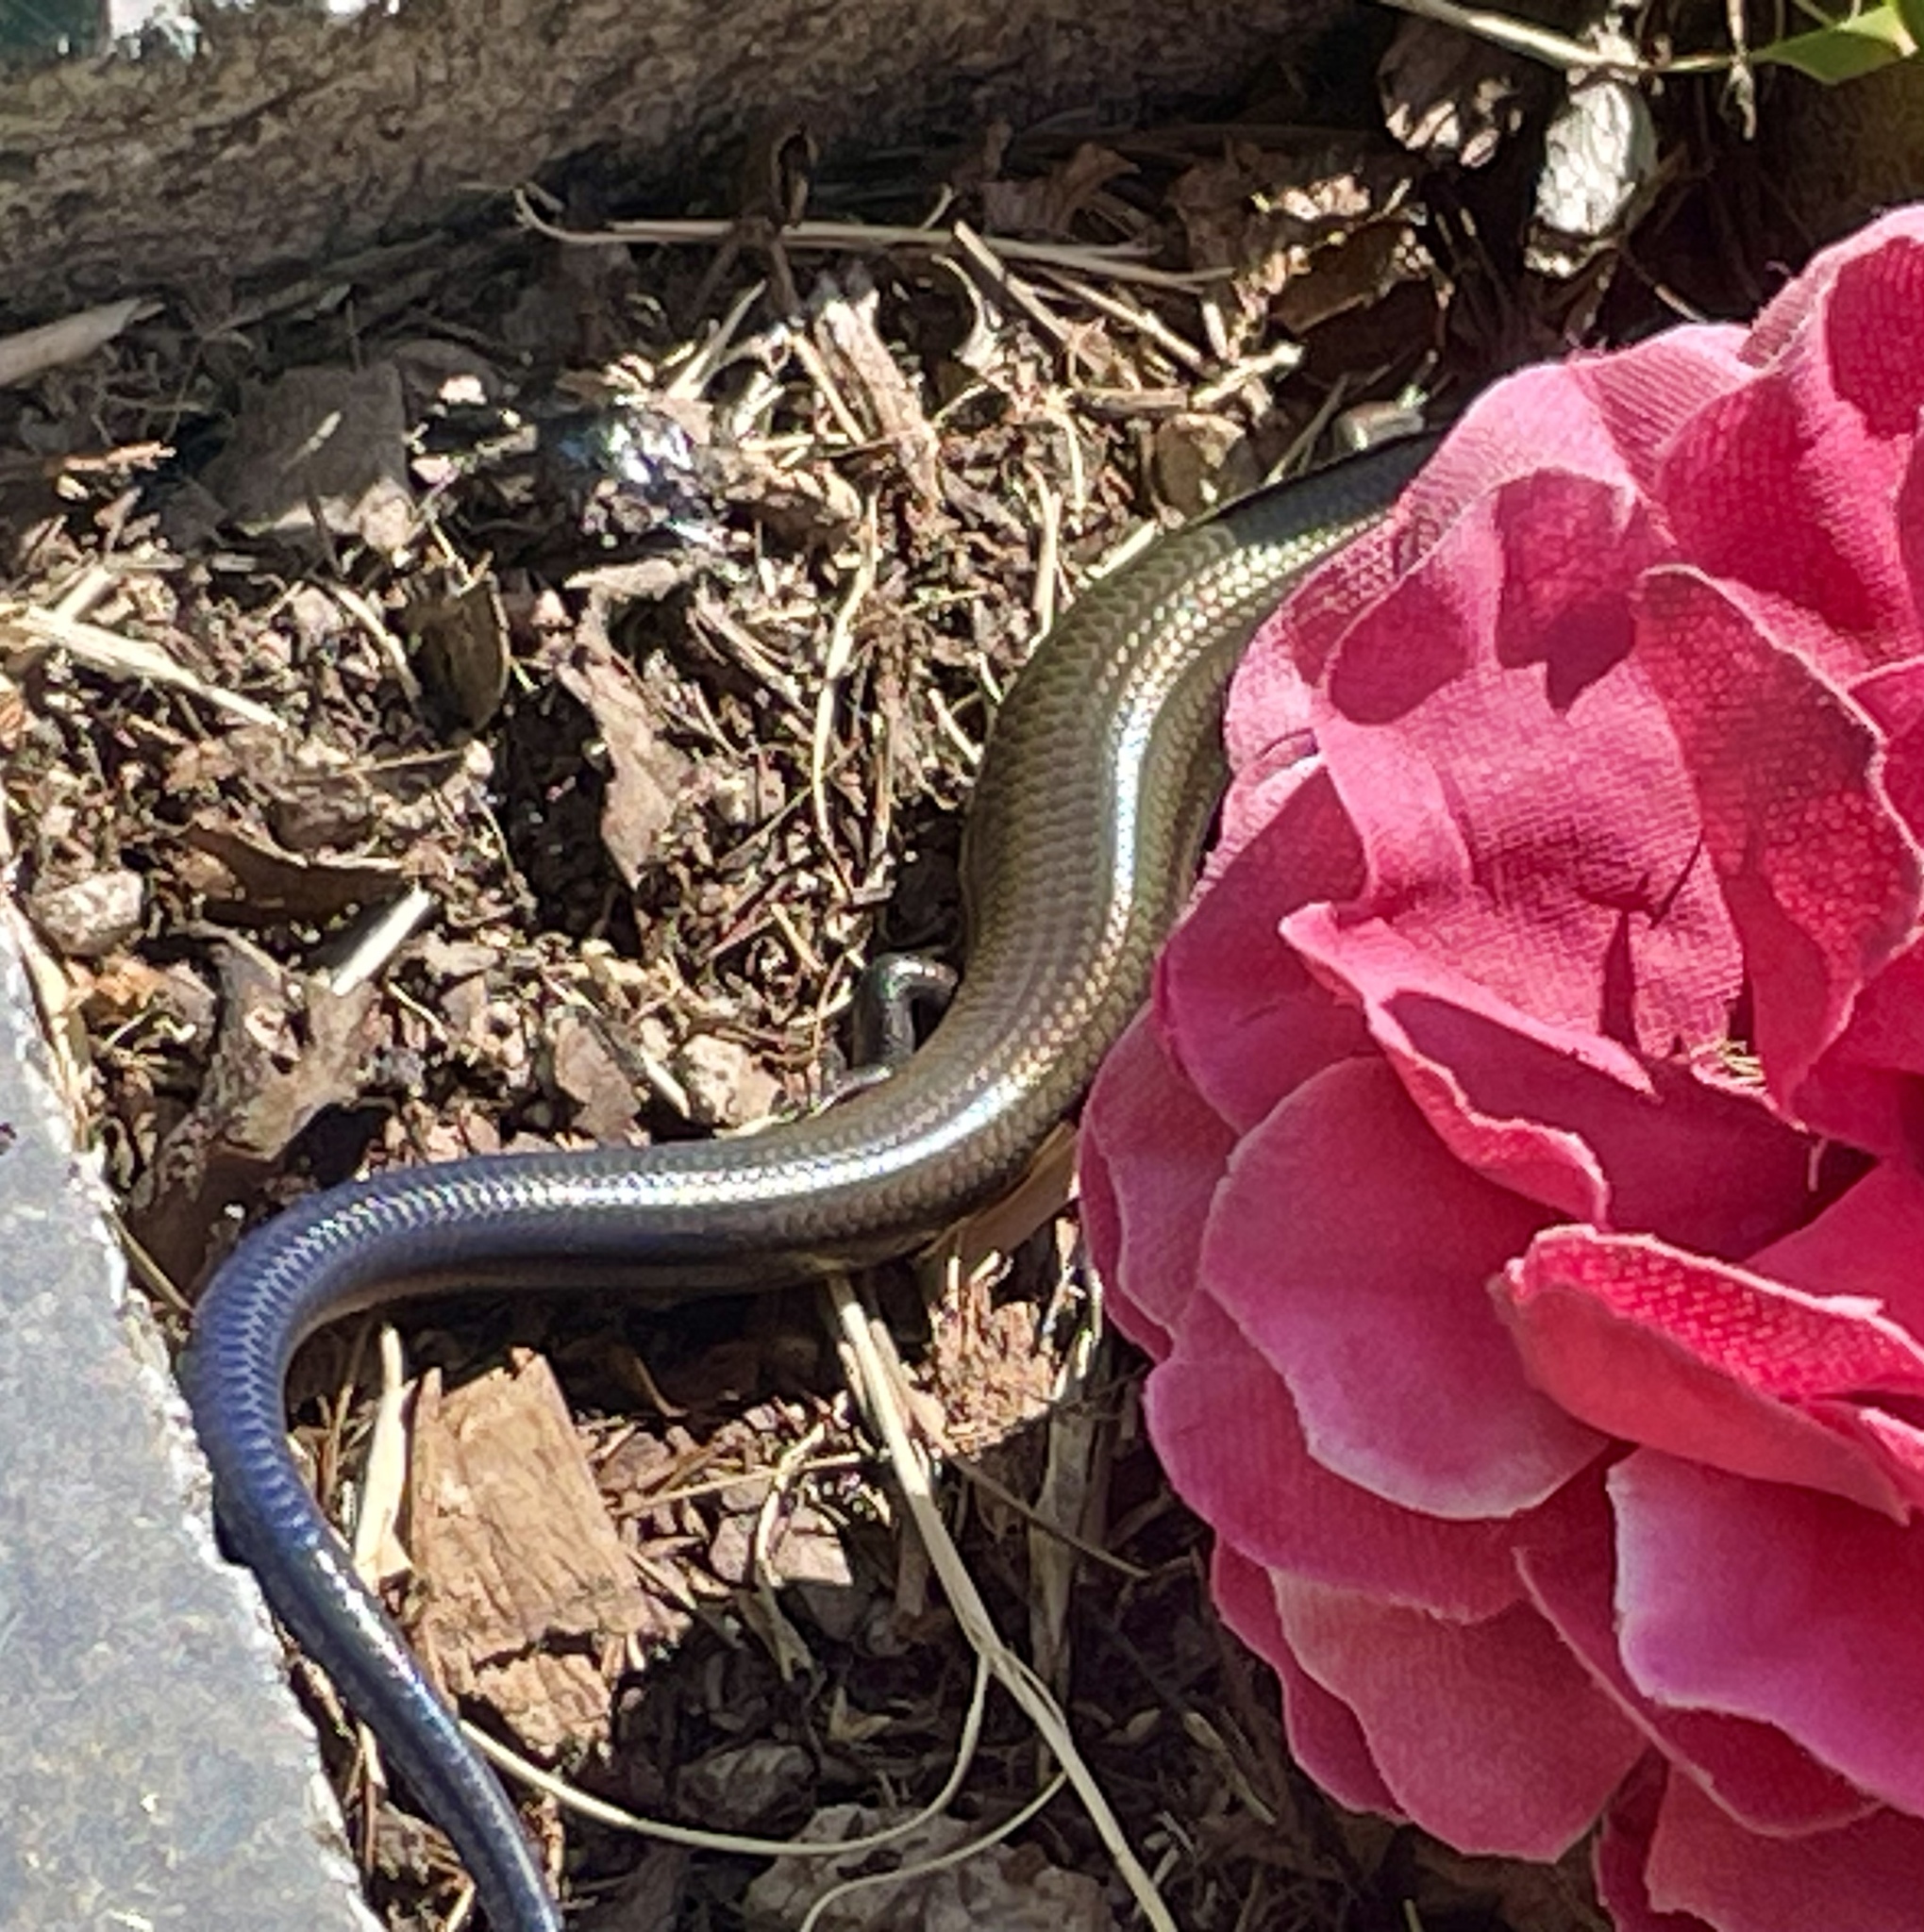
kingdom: Animalia
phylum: Chordata
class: Squamata
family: Scincidae
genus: Plestiodon
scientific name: Plestiodon tetragrammus
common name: Four-lined skink
